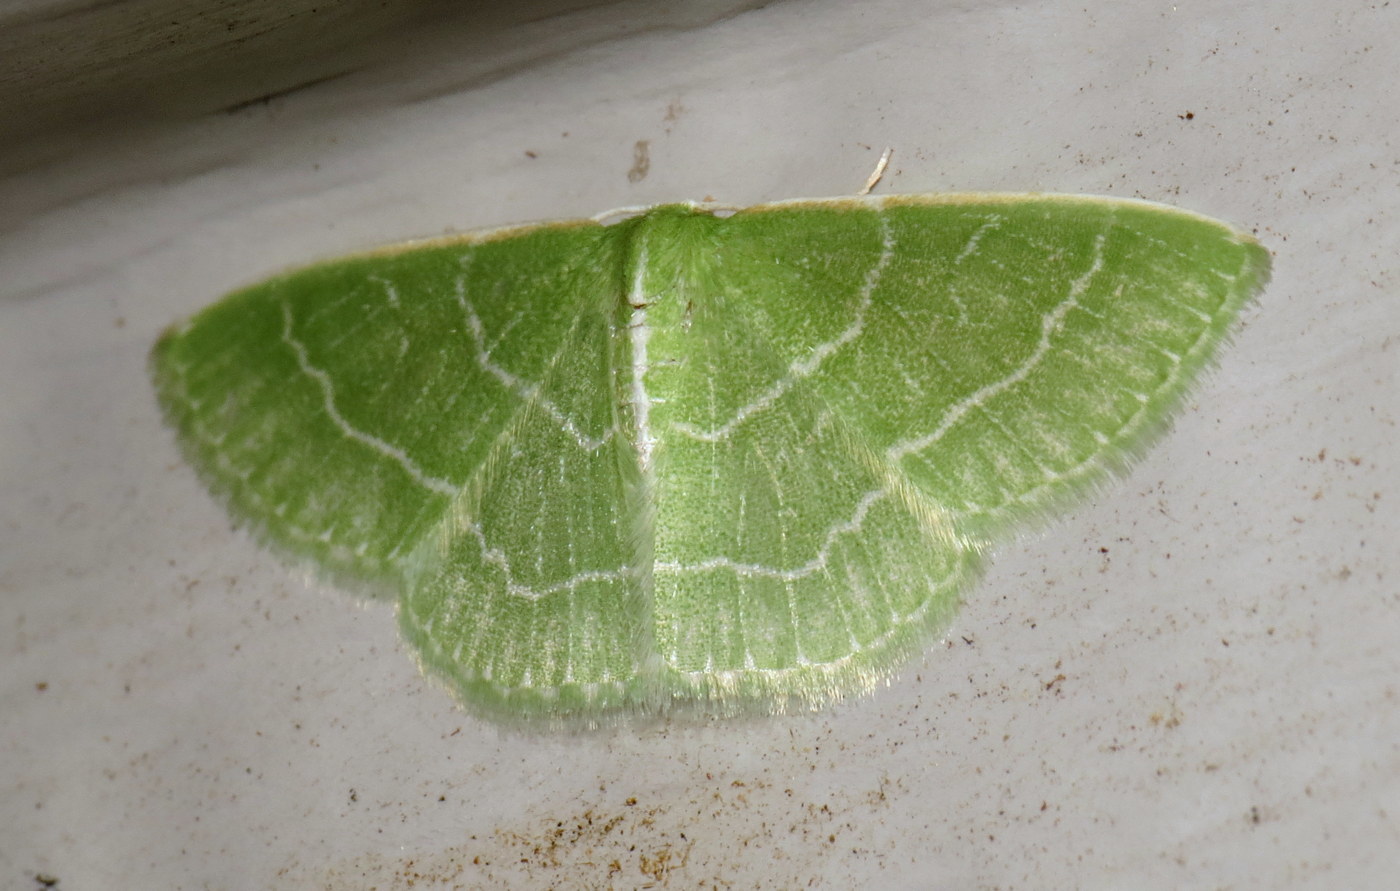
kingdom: Animalia
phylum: Arthropoda
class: Insecta
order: Lepidoptera
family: Geometridae
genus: Synchlora
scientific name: Synchlora aerata
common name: Wavy-lined emerald
